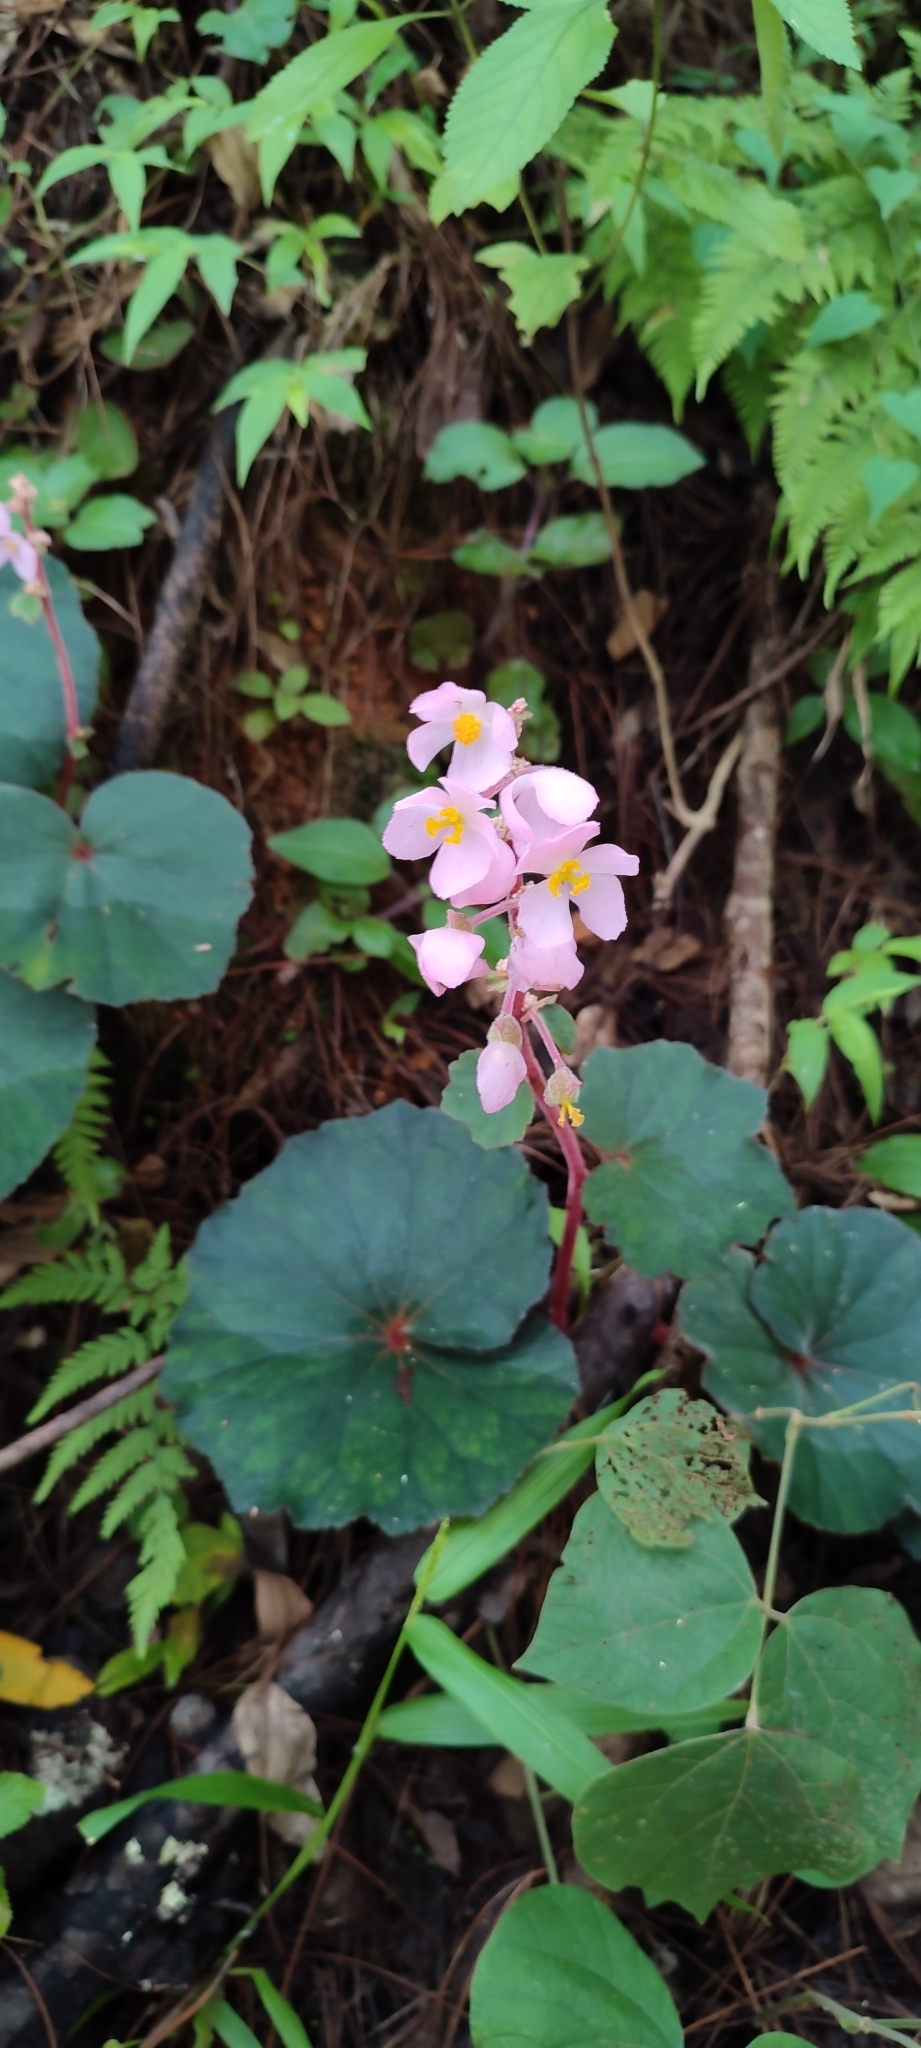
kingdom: Plantae
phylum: Tracheophyta
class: Magnoliopsida
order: Cucurbitales
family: Begoniaceae
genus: Begonia
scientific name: Begonia balmisiana
